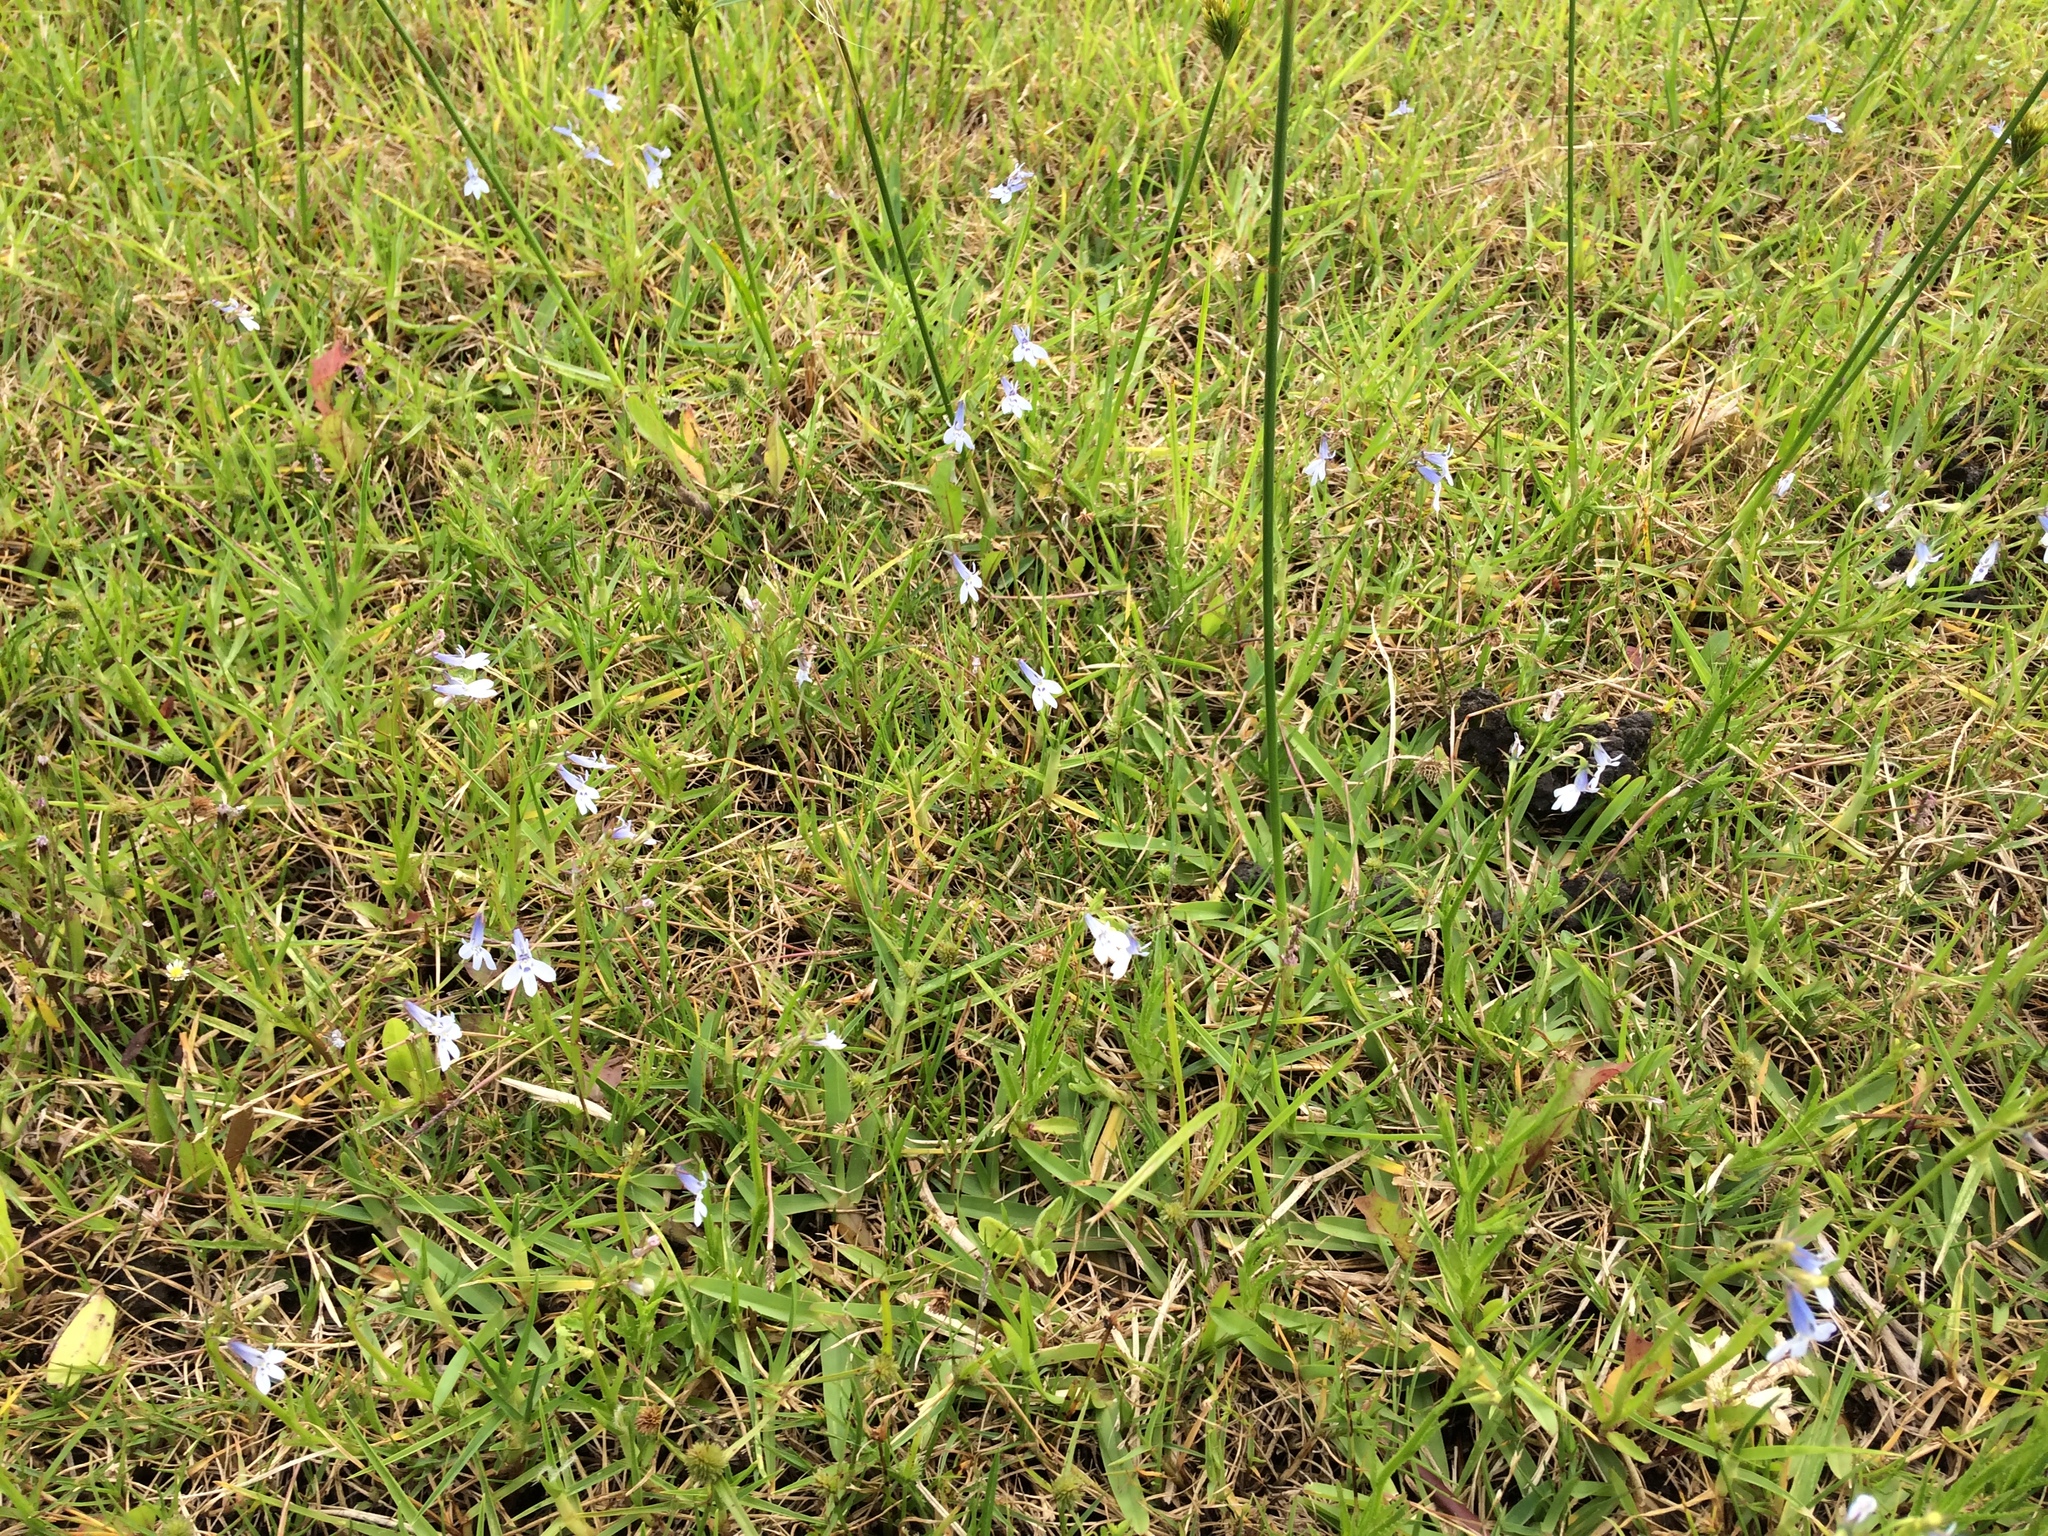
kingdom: Plantae
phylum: Tracheophyta
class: Magnoliopsida
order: Asterales
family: Campanulaceae
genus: Lobelia
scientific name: Lobelia flaccida
